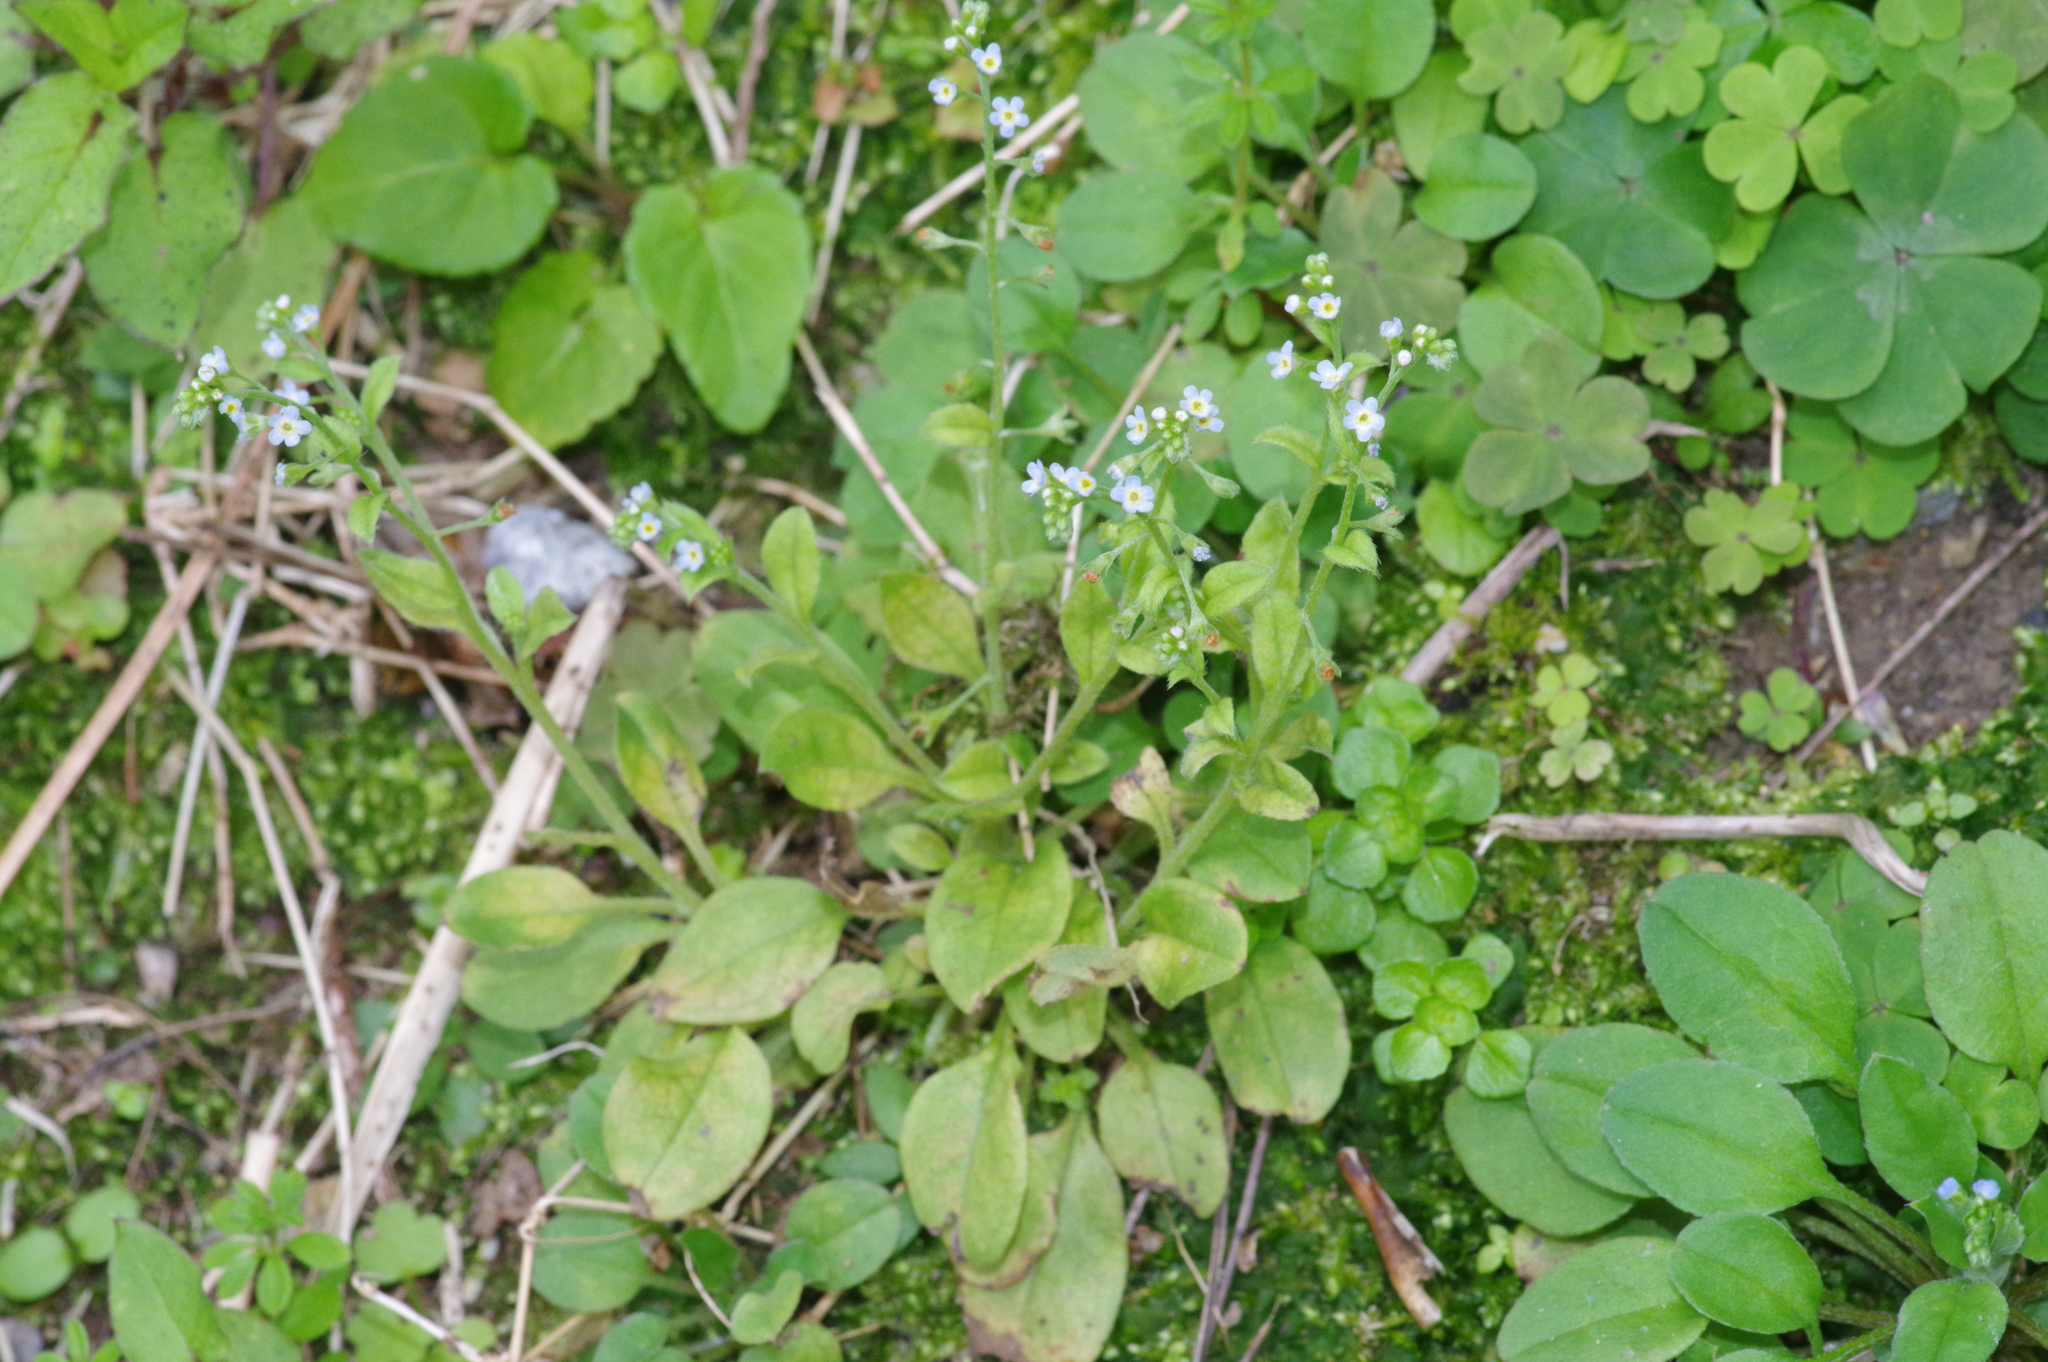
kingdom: Plantae
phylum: Tracheophyta
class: Magnoliopsida
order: Boraginales
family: Boraginaceae
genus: Trigonotis
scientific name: Trigonotis peduncularis
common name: Cucumber herb
